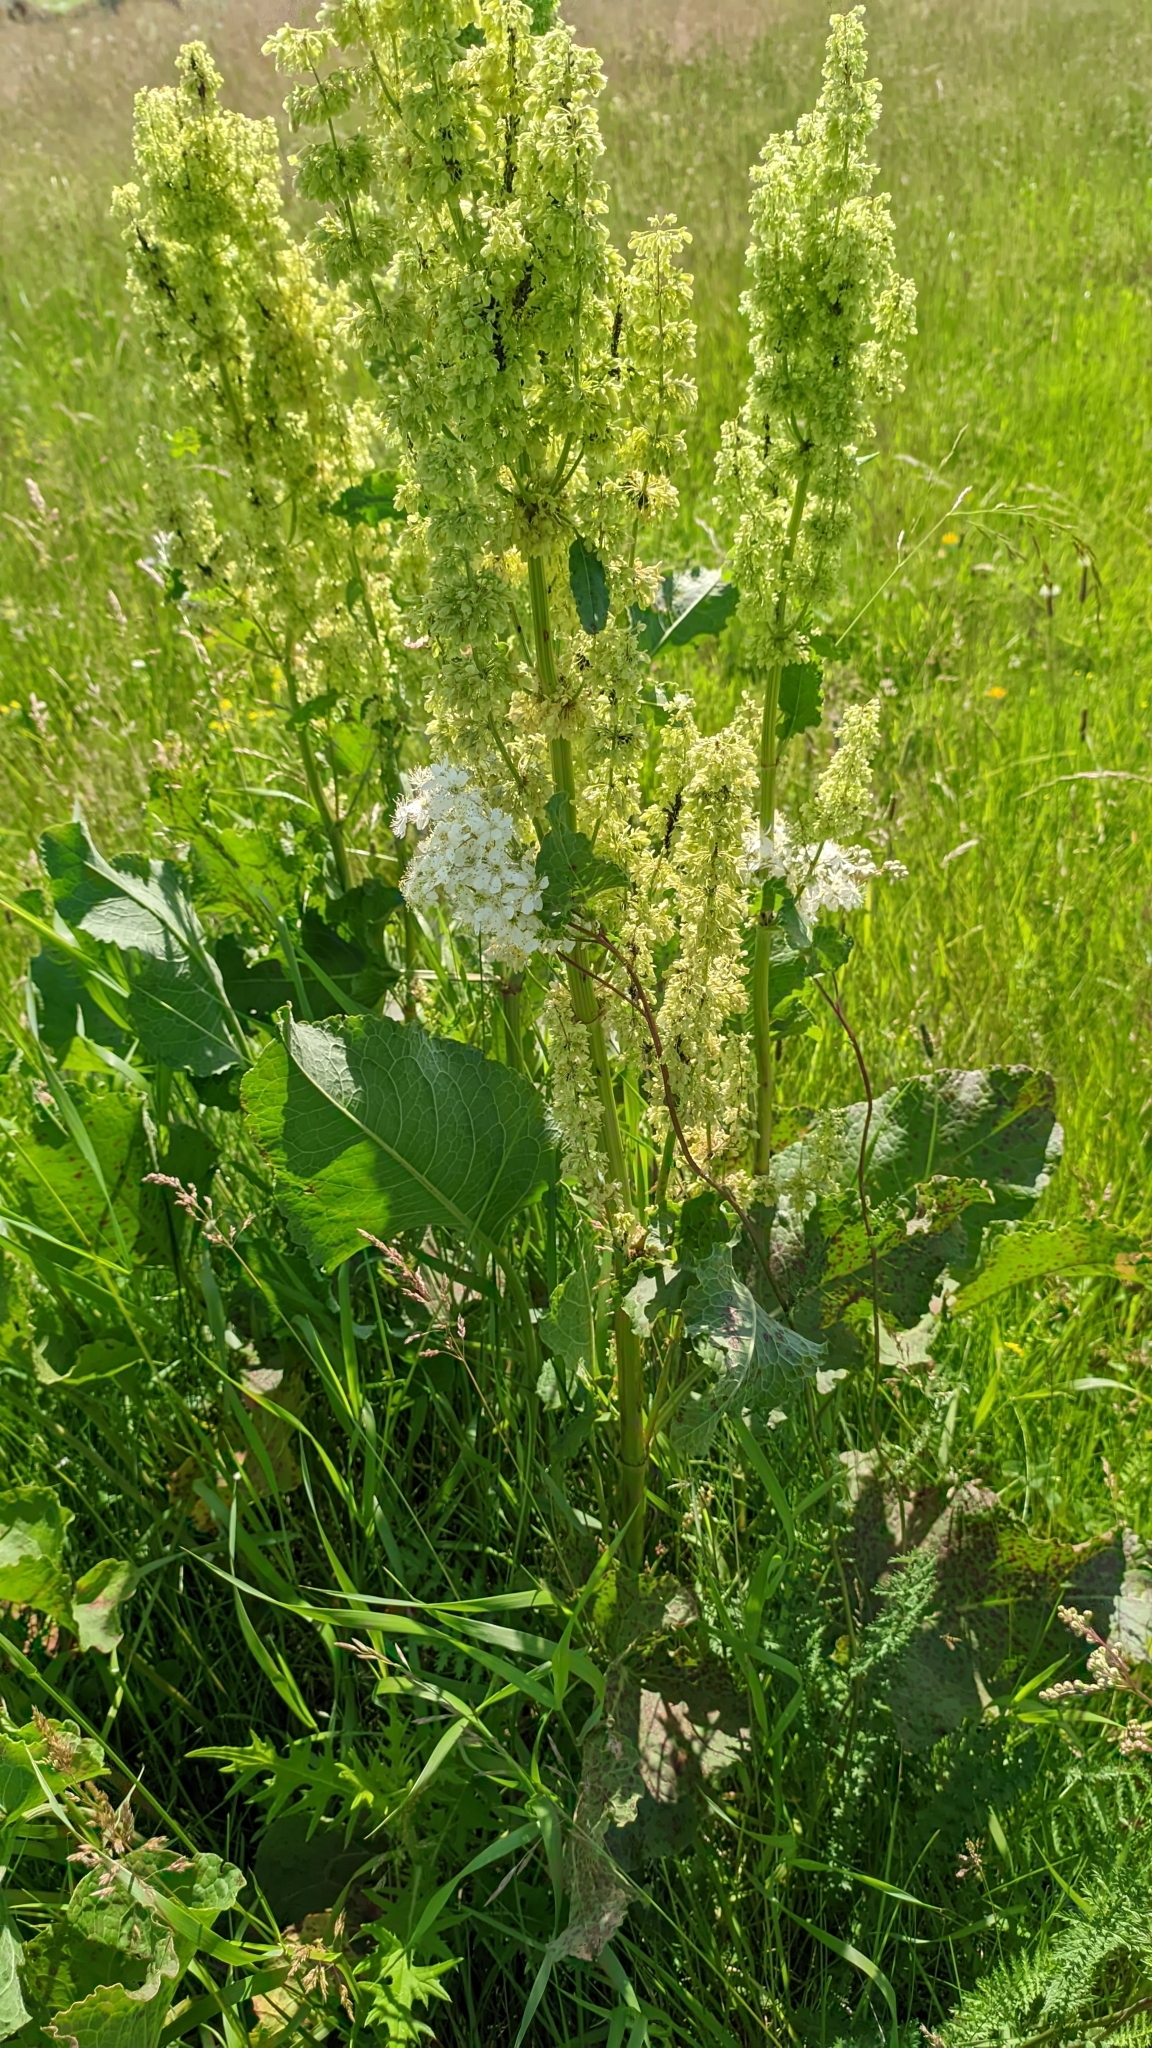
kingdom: Plantae
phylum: Tracheophyta
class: Magnoliopsida
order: Rosales
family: Rosaceae
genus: Filipendula
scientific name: Filipendula vulgaris
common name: Dropwort
